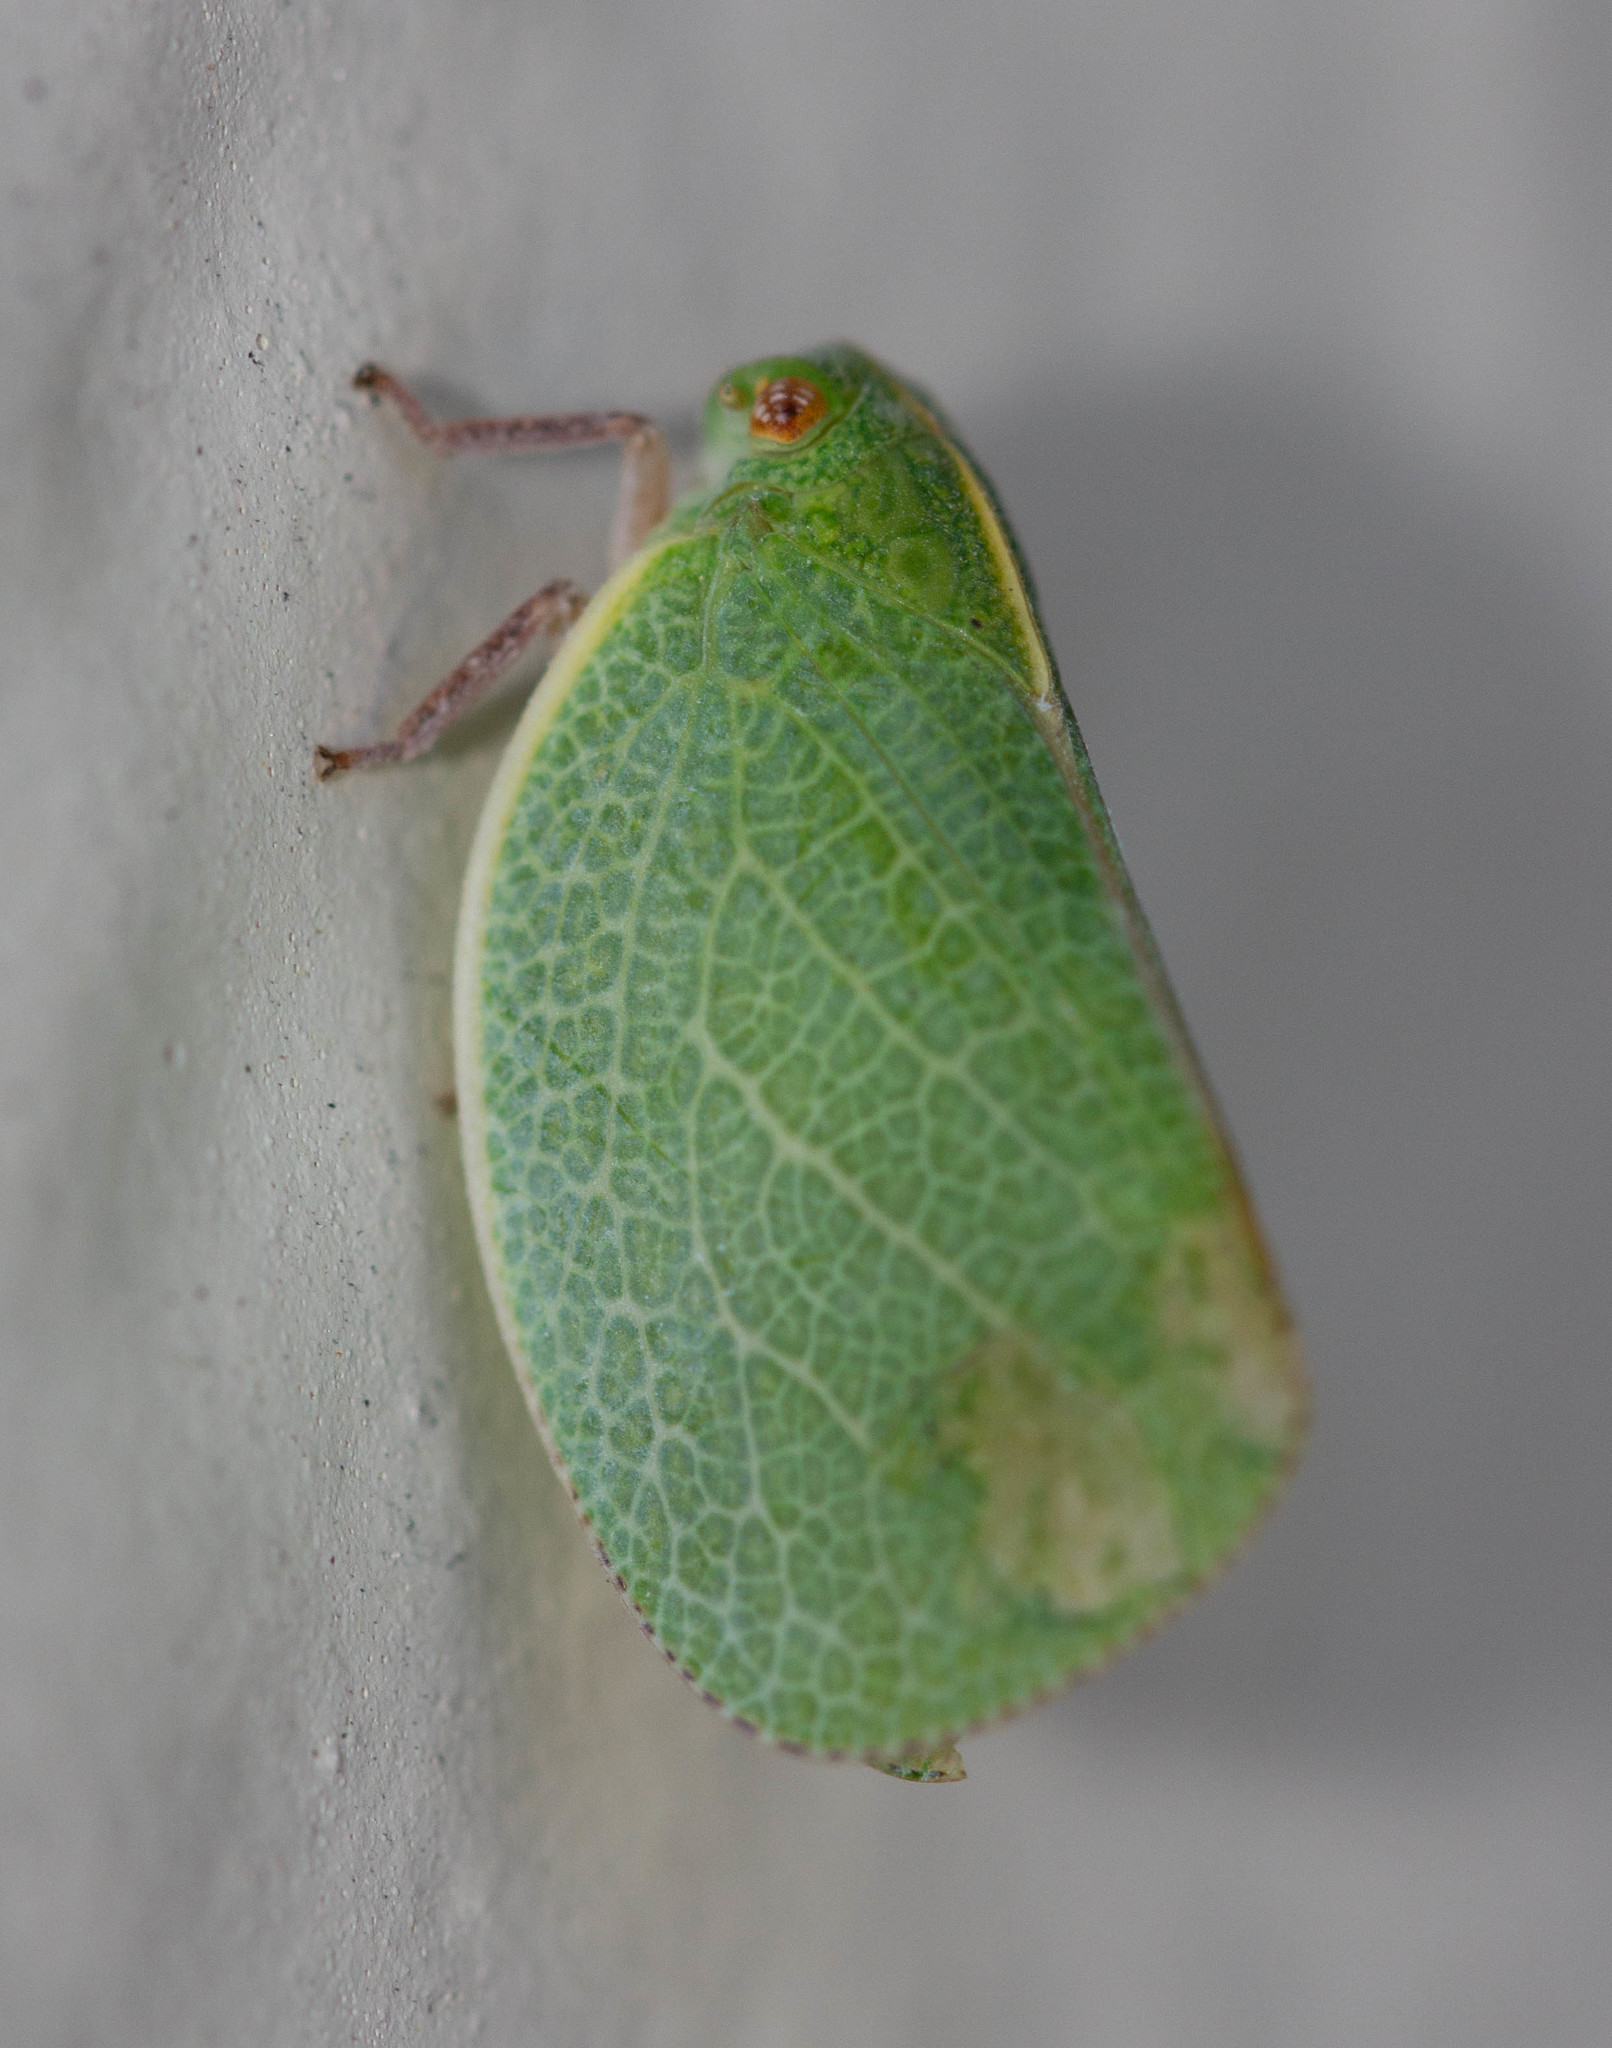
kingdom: Animalia
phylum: Arthropoda
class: Insecta
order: Hemiptera
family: Acanaloniidae
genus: Acanalonia
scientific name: Acanalonia servillei
